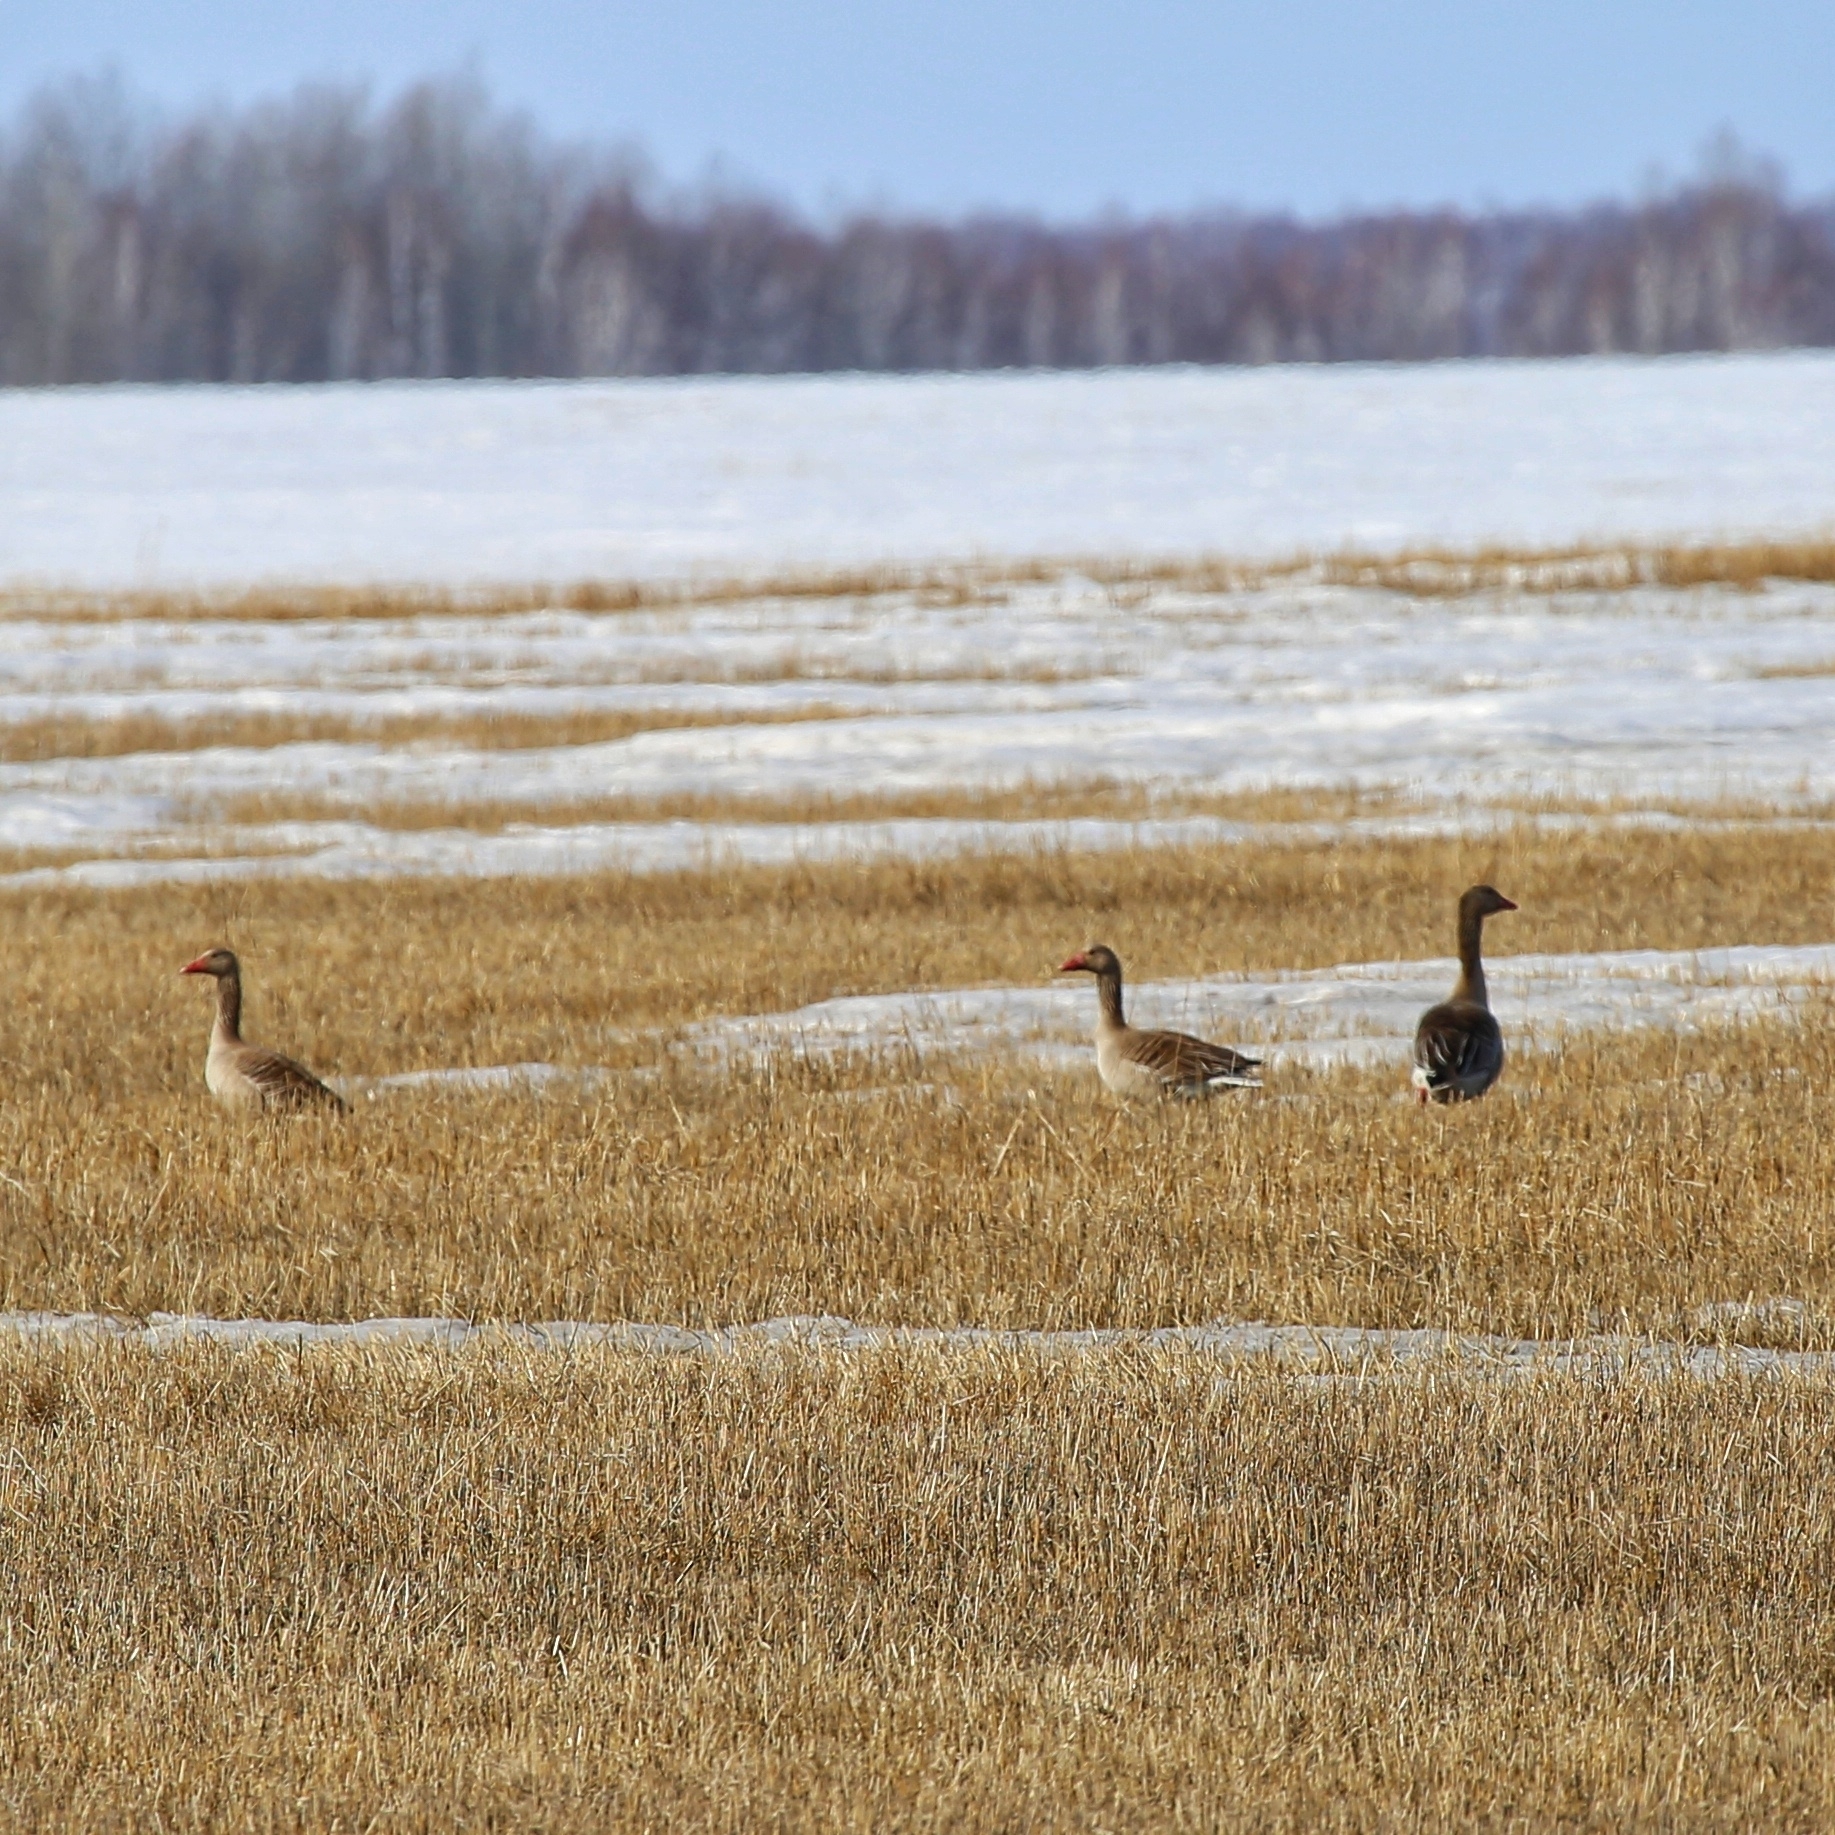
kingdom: Animalia
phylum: Chordata
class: Aves
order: Anseriformes
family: Anatidae
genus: Anser
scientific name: Anser anser
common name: Greylag goose
